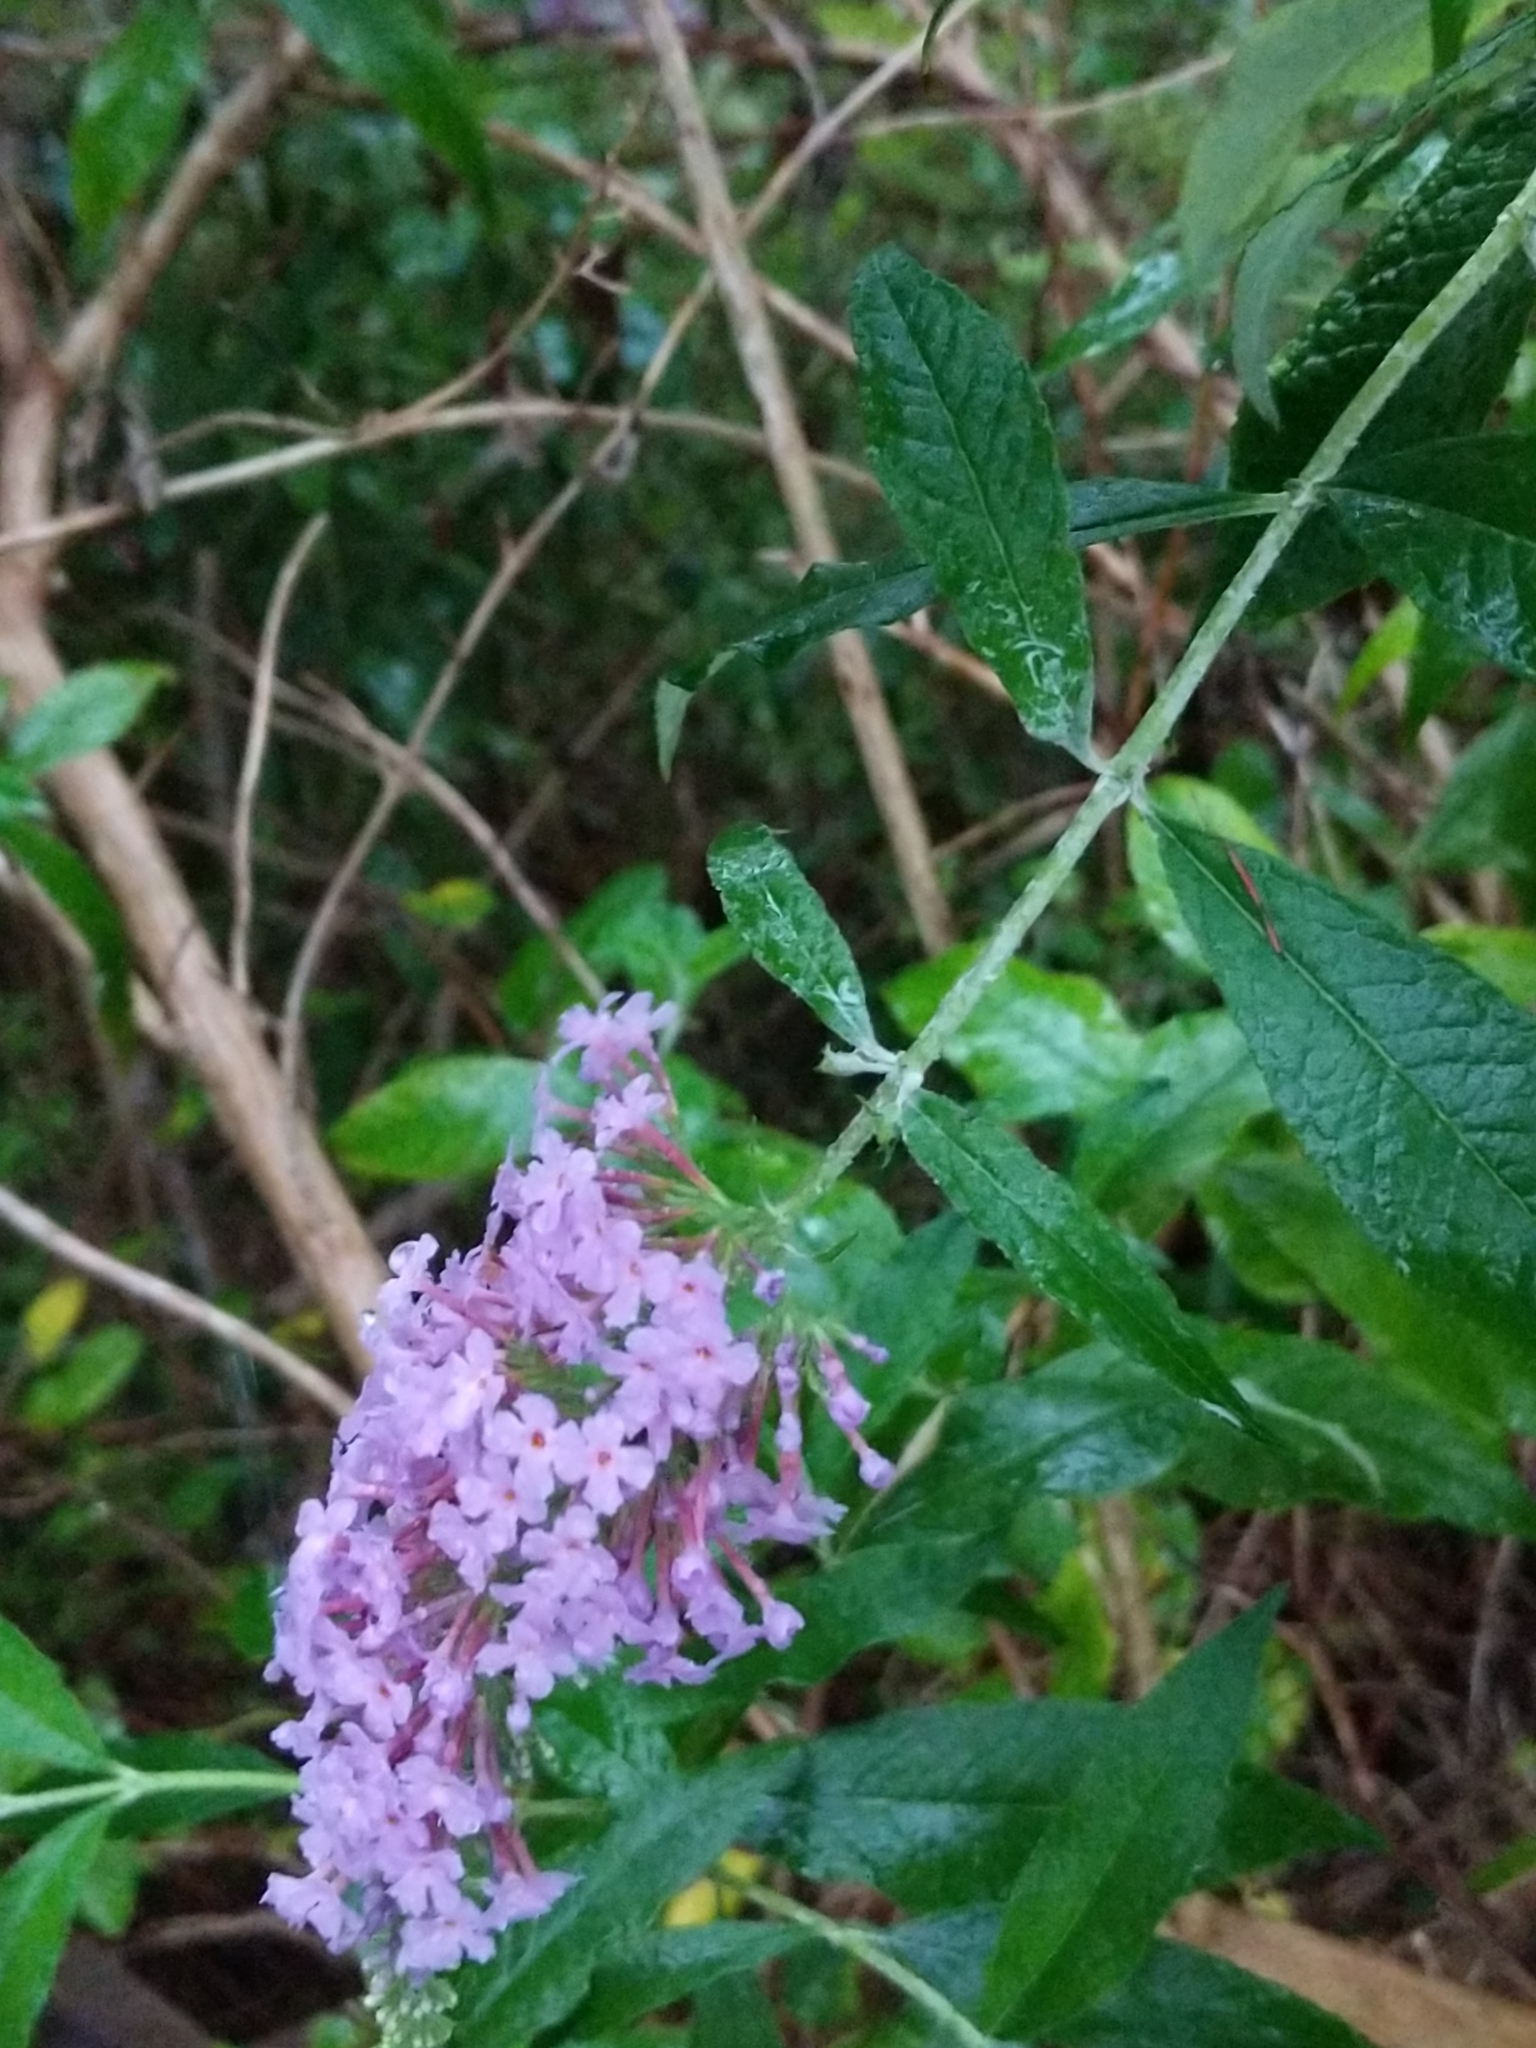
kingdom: Plantae
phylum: Tracheophyta
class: Magnoliopsida
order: Lamiales
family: Scrophulariaceae
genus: Buddleja
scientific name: Buddleja davidii
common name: Butterfly-bush
